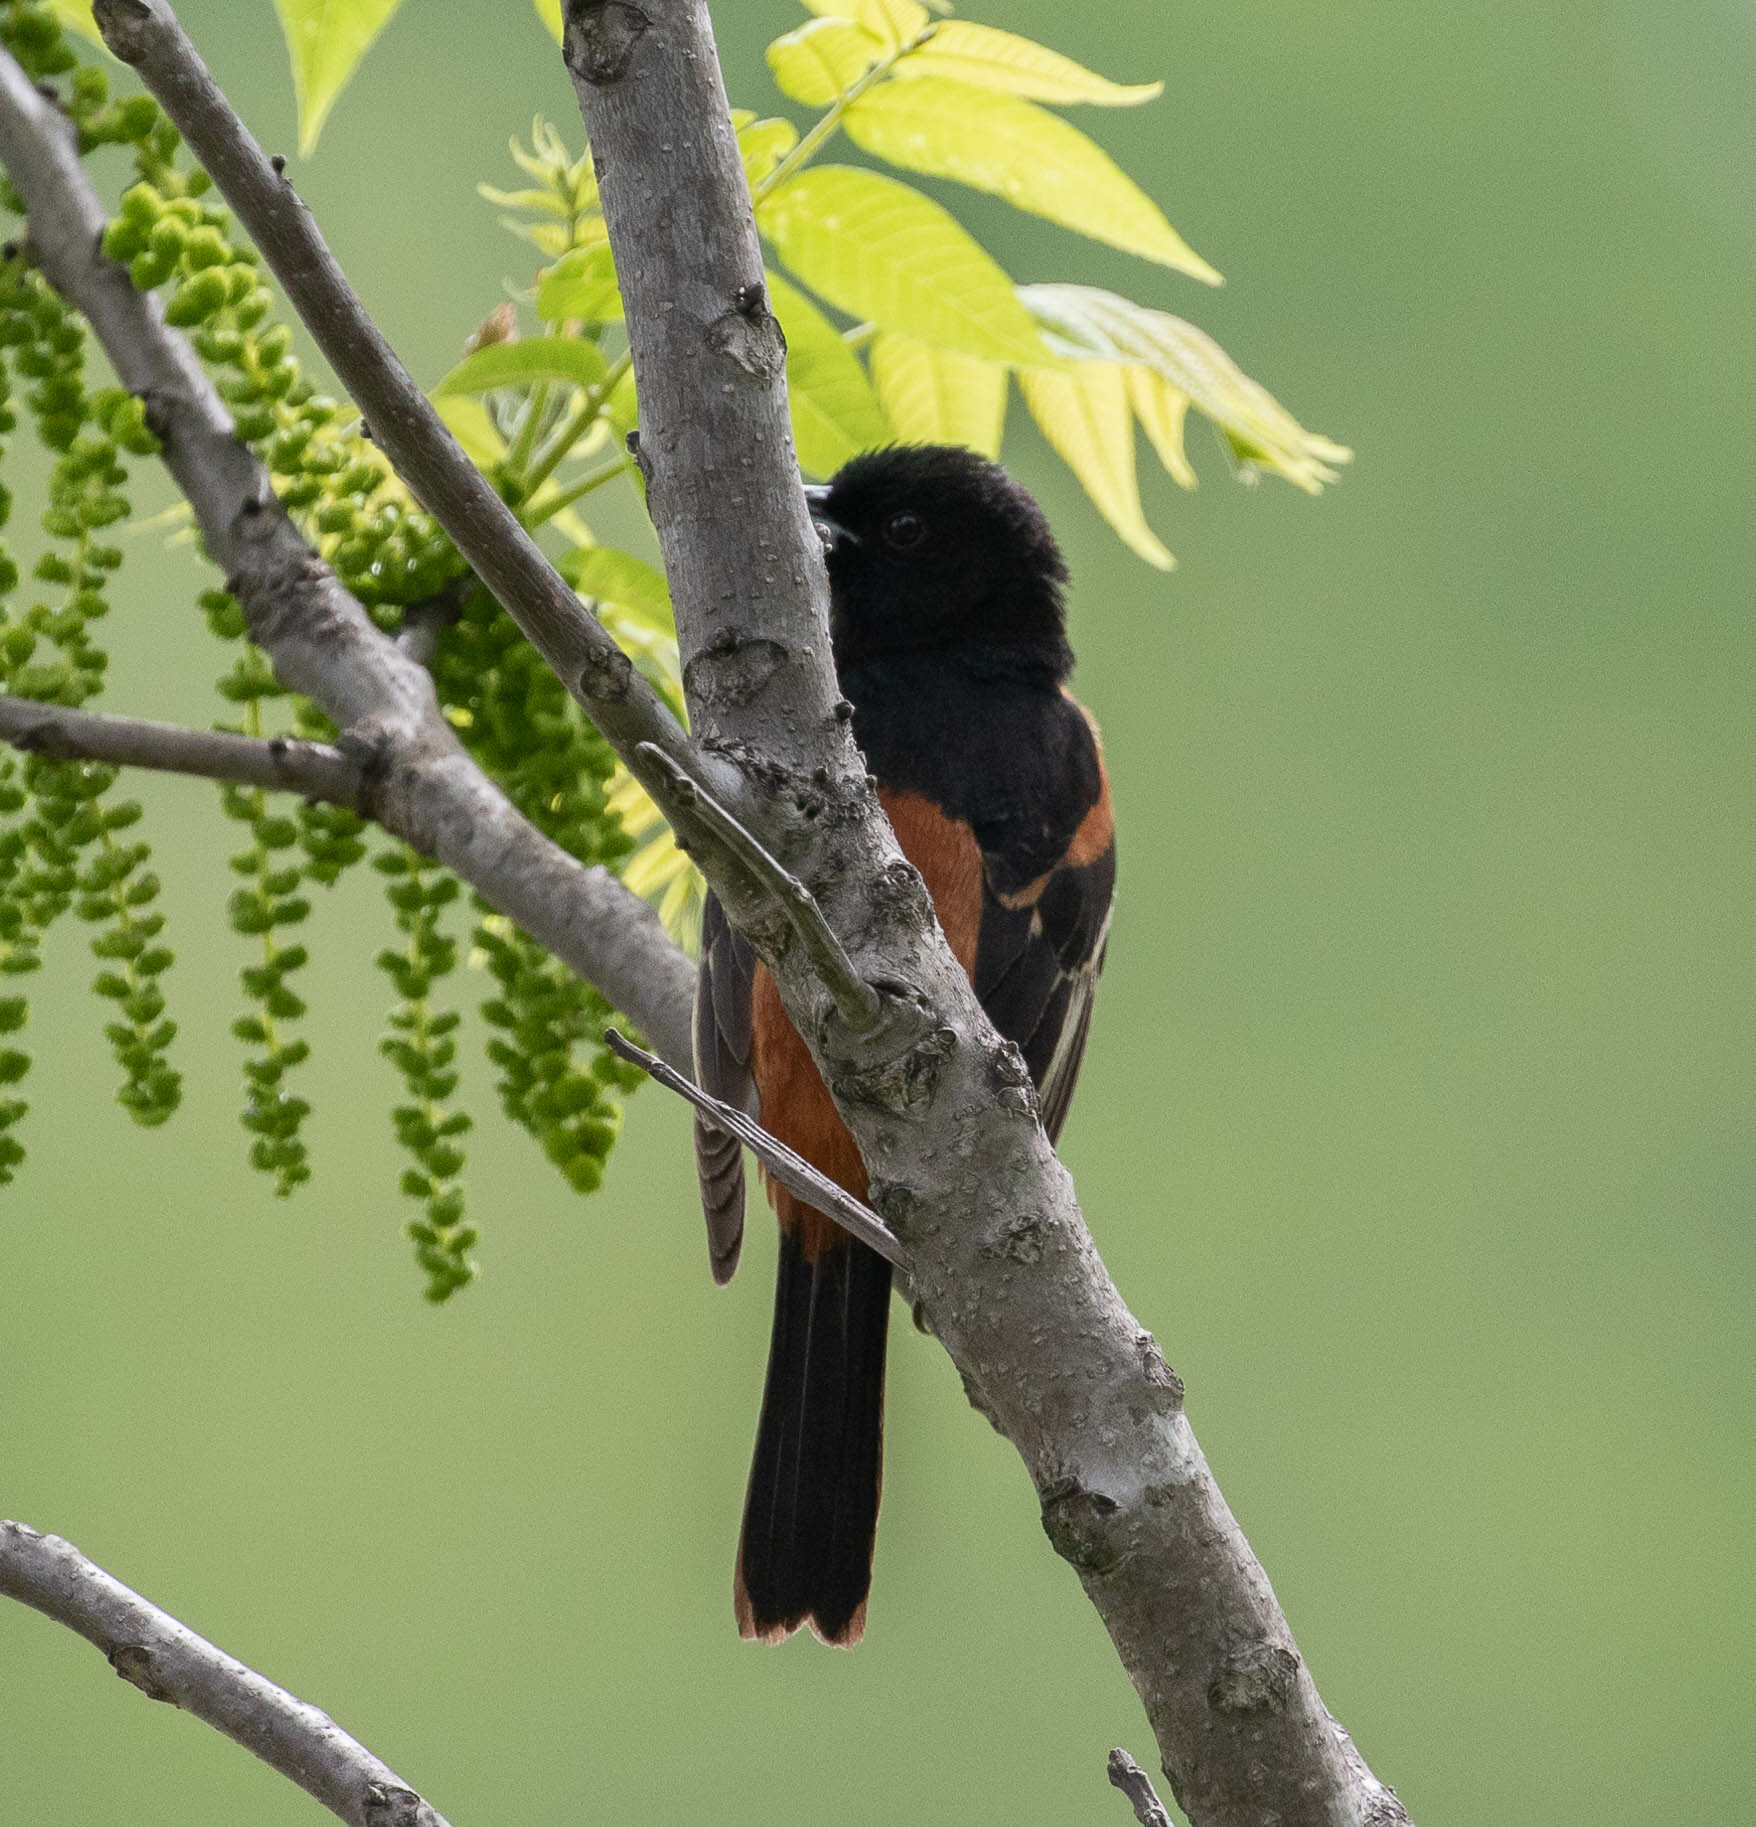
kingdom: Animalia
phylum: Chordata
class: Aves
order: Passeriformes
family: Icteridae
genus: Icterus
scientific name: Icterus spurius
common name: Orchard oriole
